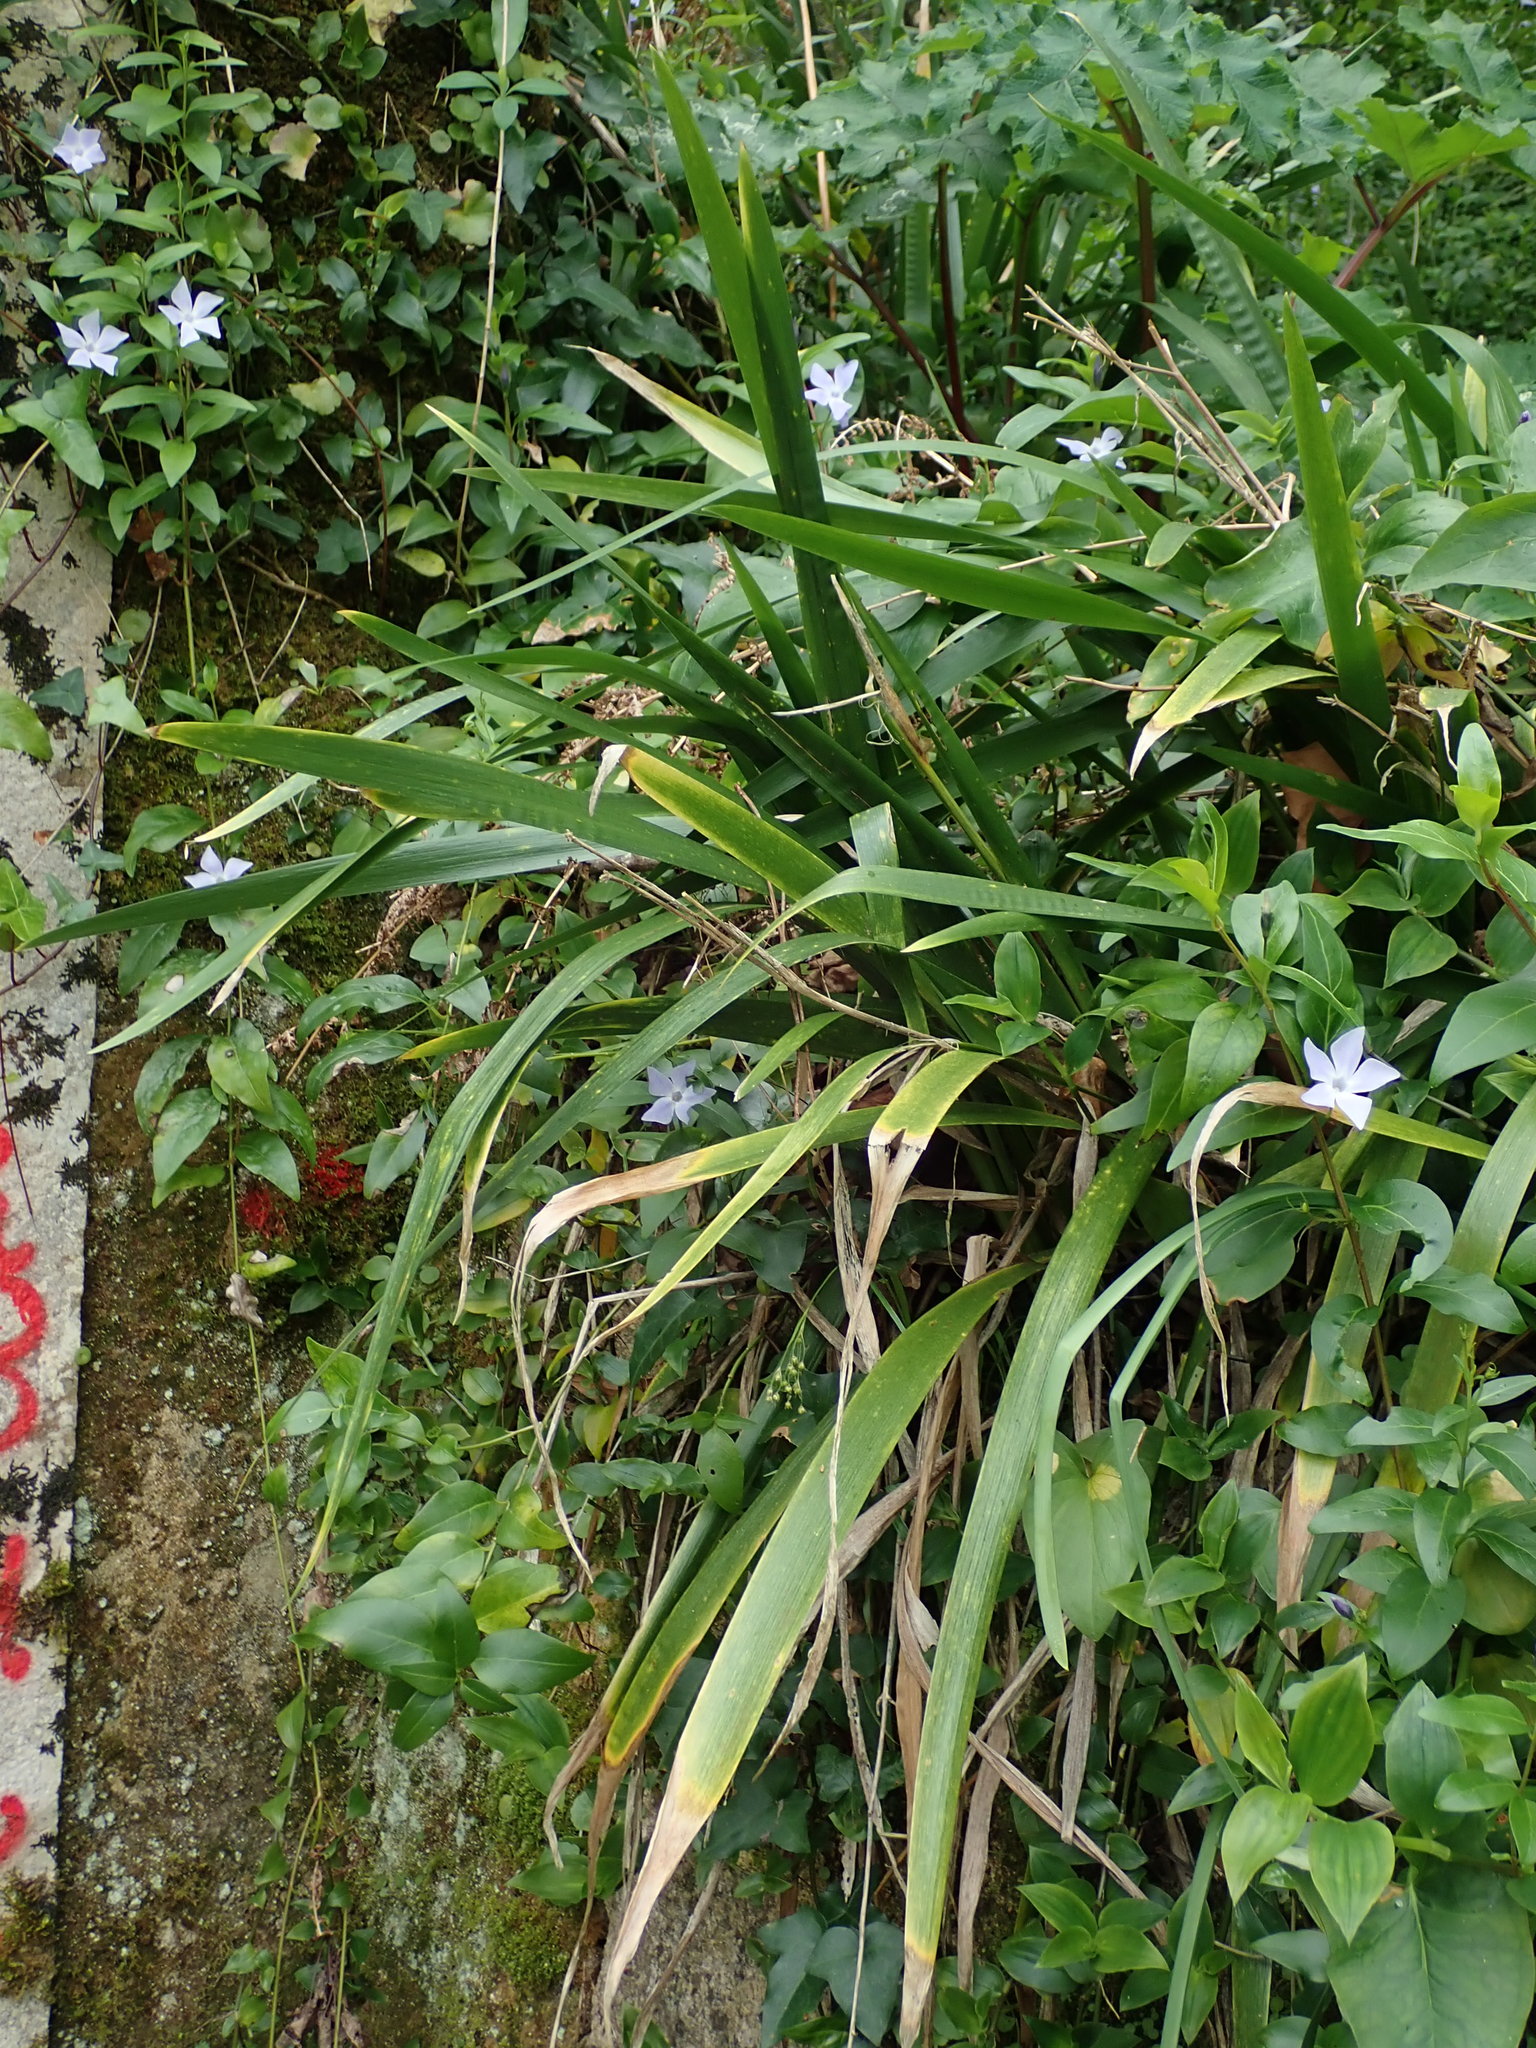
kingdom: Plantae
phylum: Tracheophyta
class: Liliopsida
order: Asparagales
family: Iridaceae
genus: Iris
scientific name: Iris foetidissima
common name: Stinking iris
